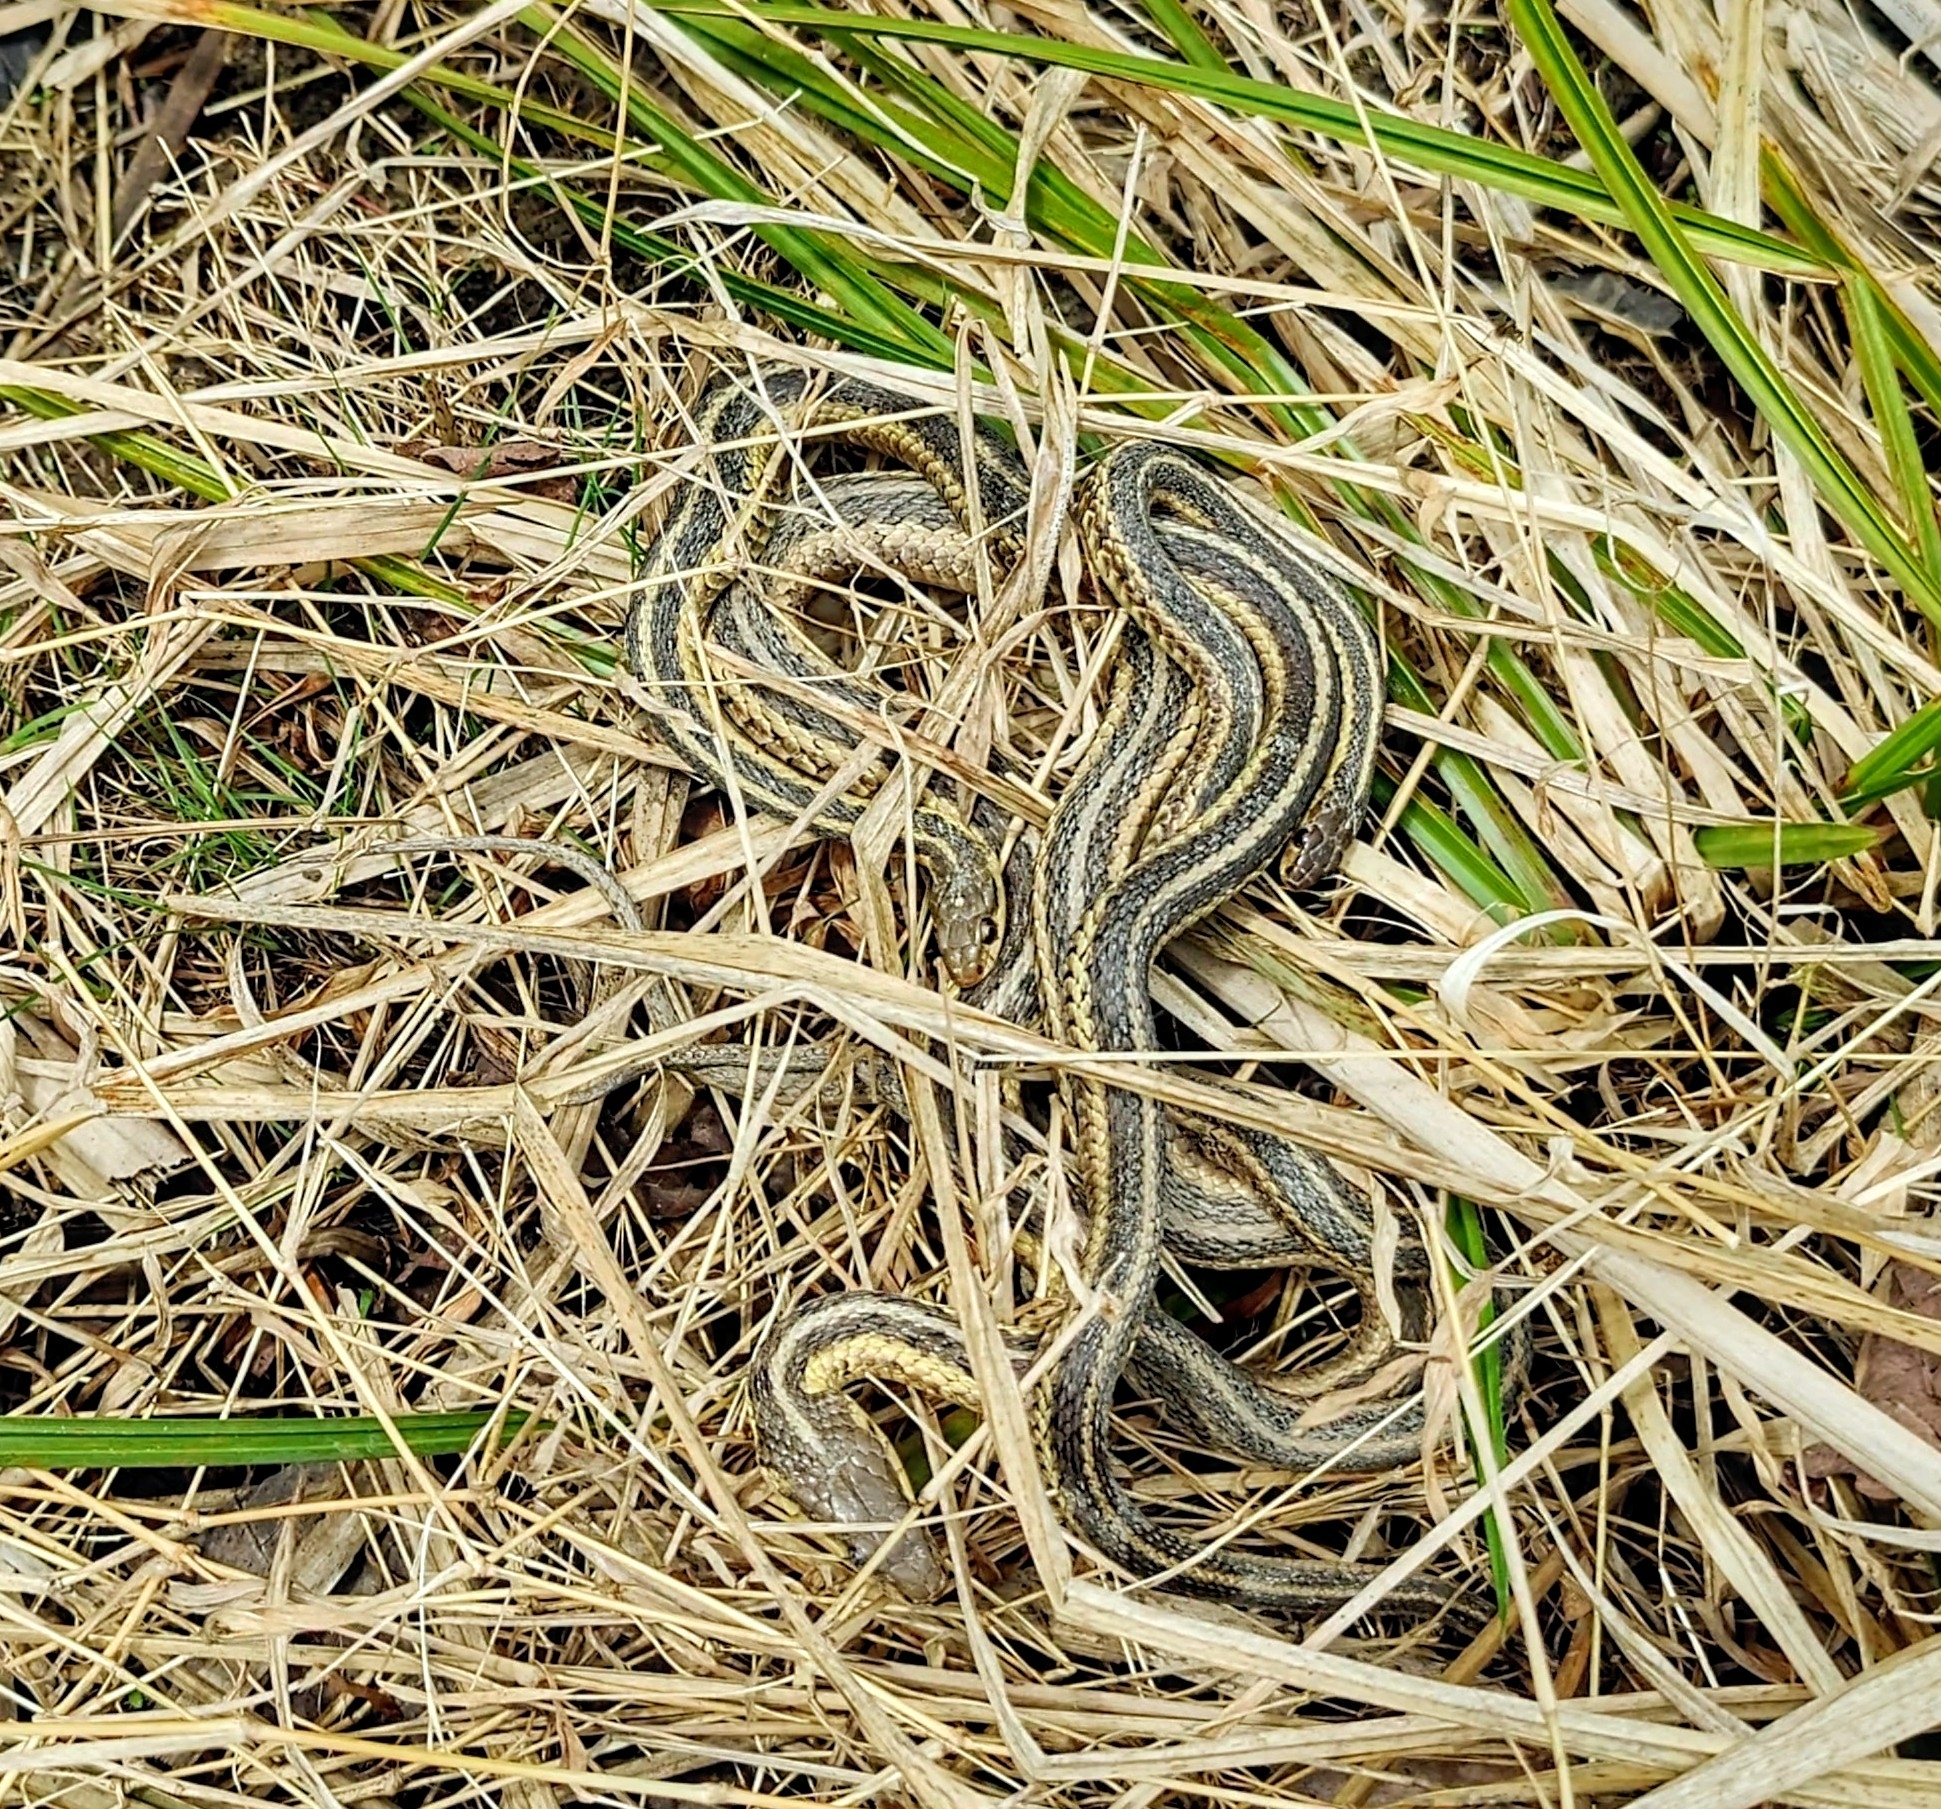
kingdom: Animalia
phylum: Chordata
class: Squamata
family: Colubridae
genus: Thamnophis
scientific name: Thamnophis sirtalis
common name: Common garter snake
